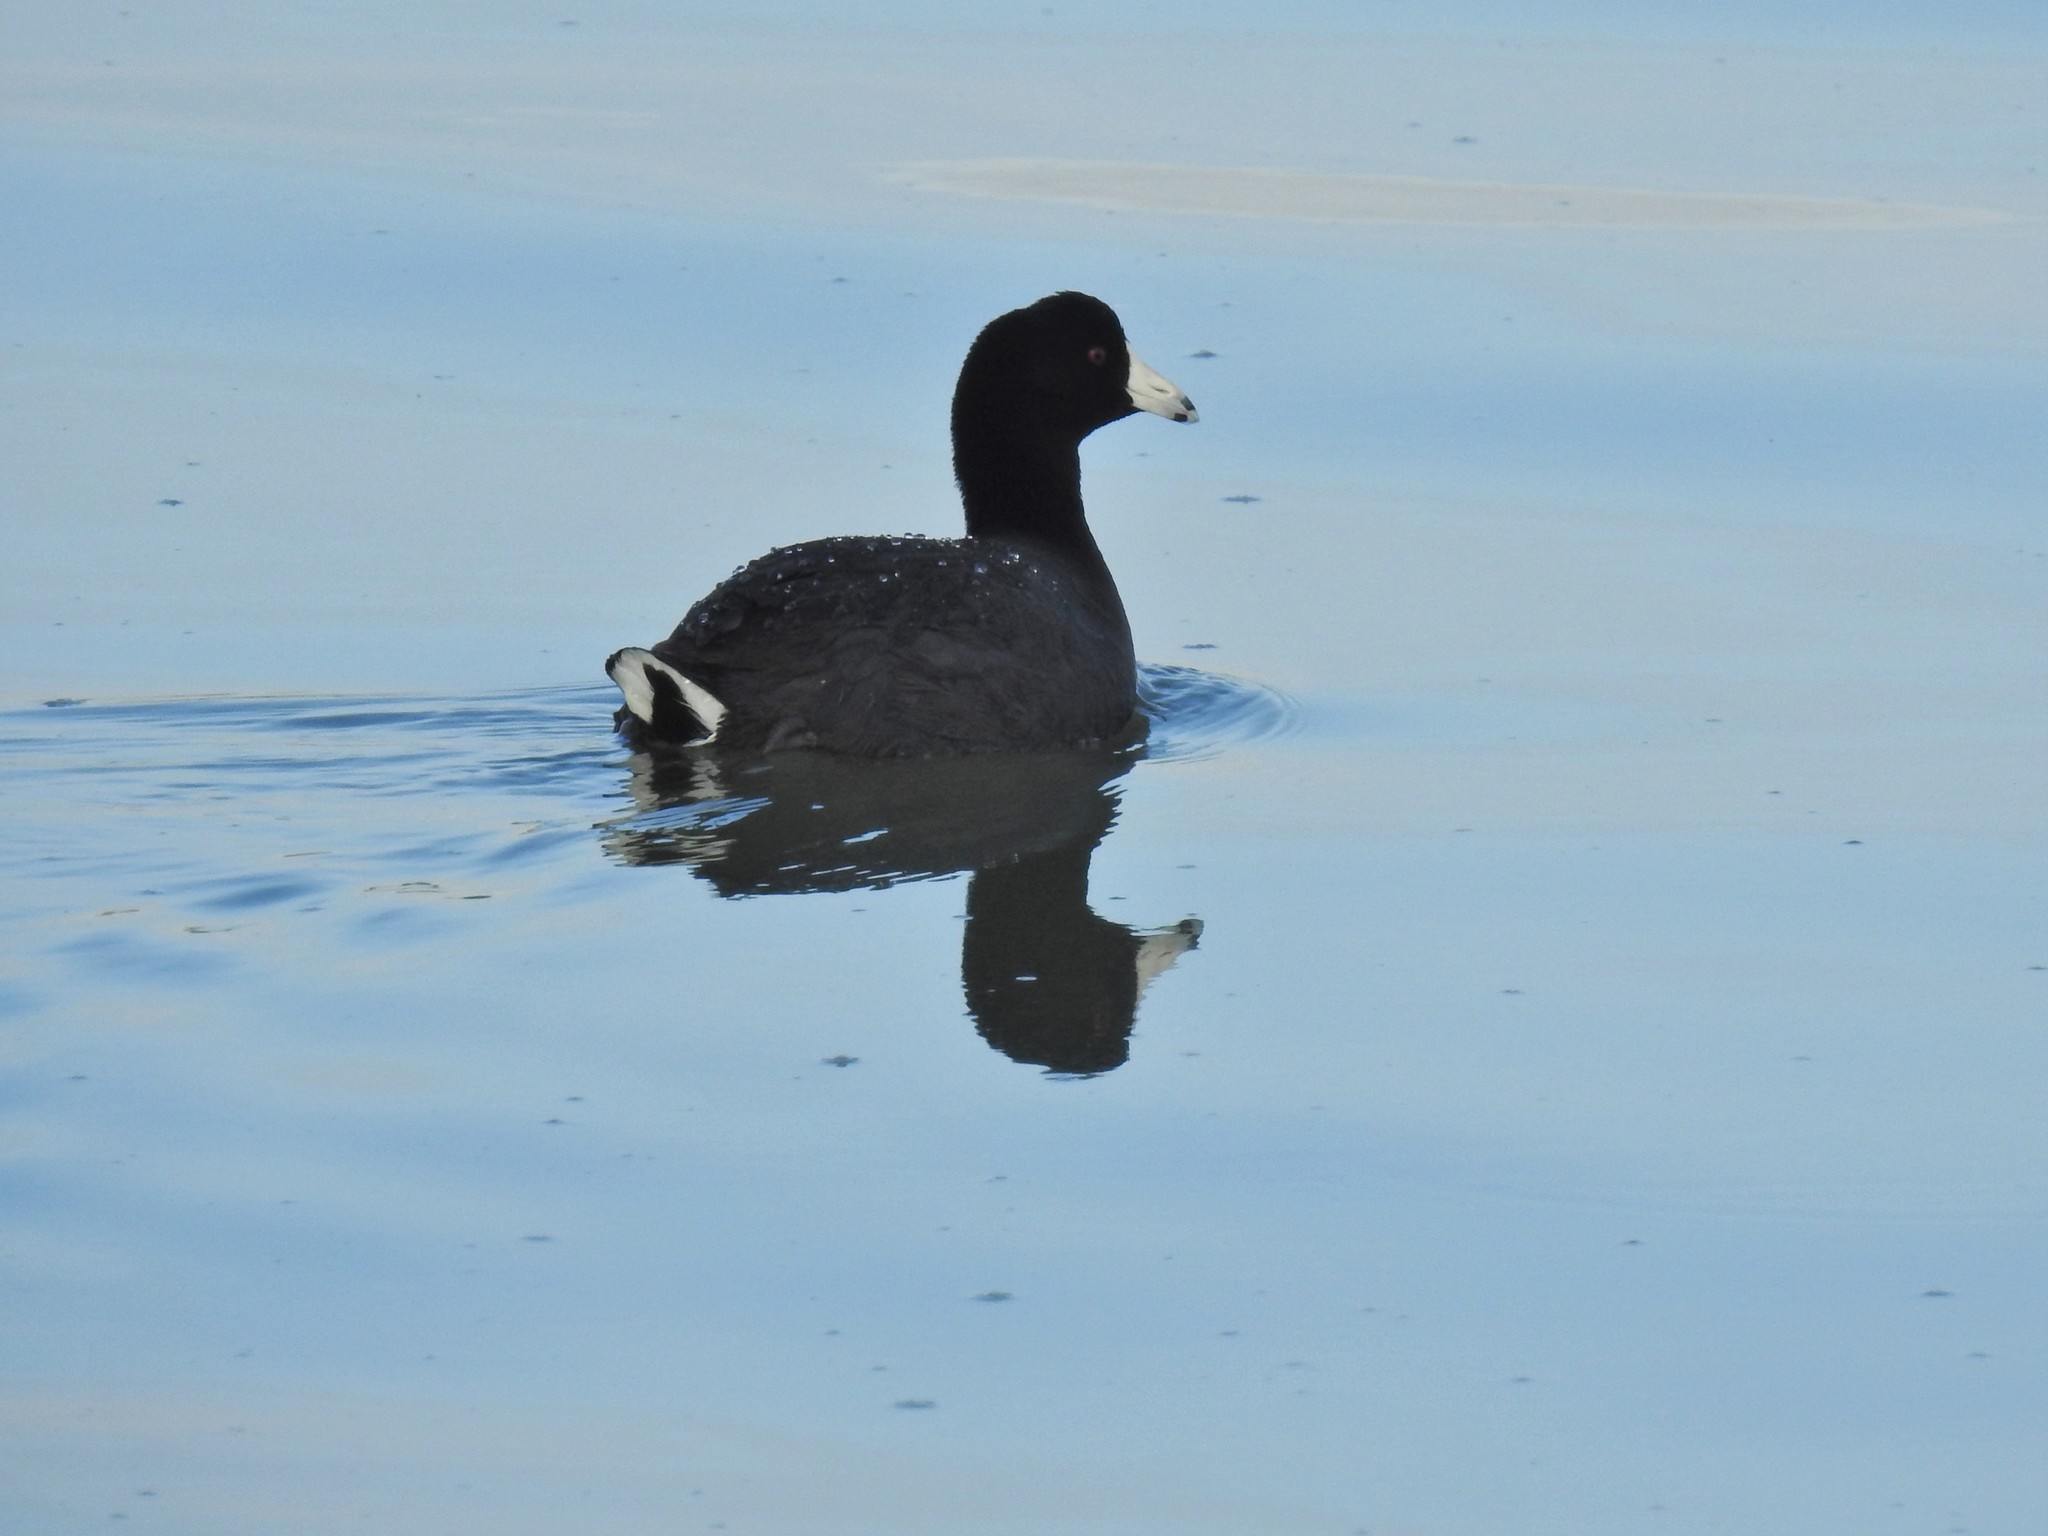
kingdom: Animalia
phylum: Chordata
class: Aves
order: Gruiformes
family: Rallidae
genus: Fulica
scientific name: Fulica americana
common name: American coot
